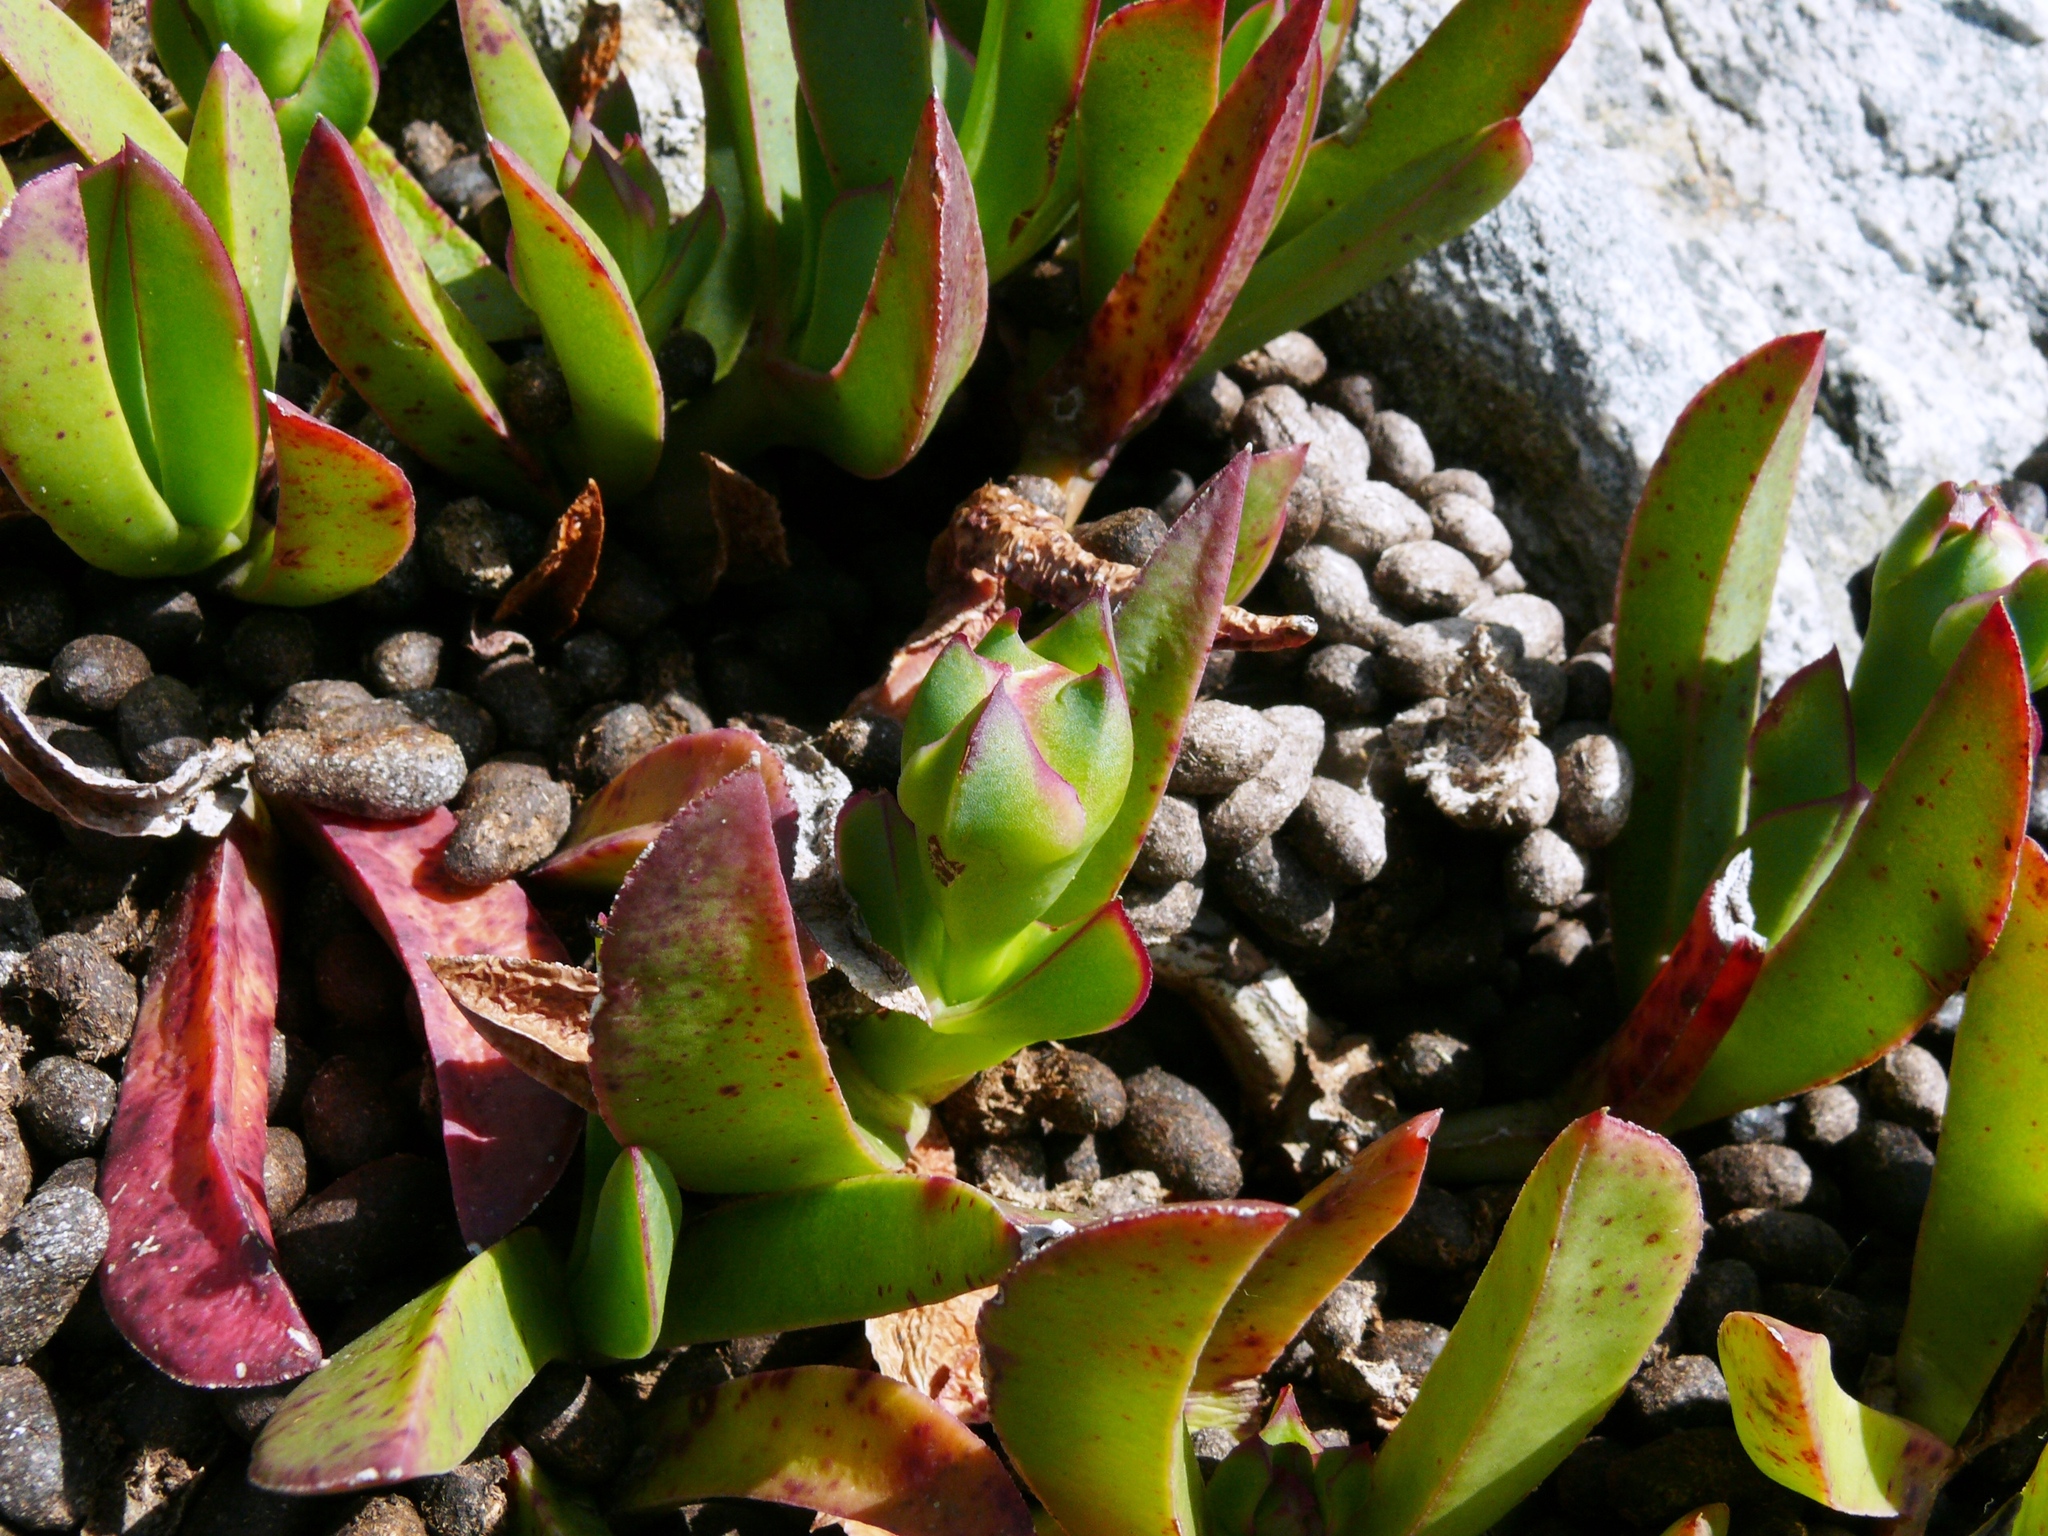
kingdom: Plantae
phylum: Tracheophyta
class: Magnoliopsida
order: Caryophyllales
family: Aizoaceae
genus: Carpobrotus
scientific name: Carpobrotus mellei
